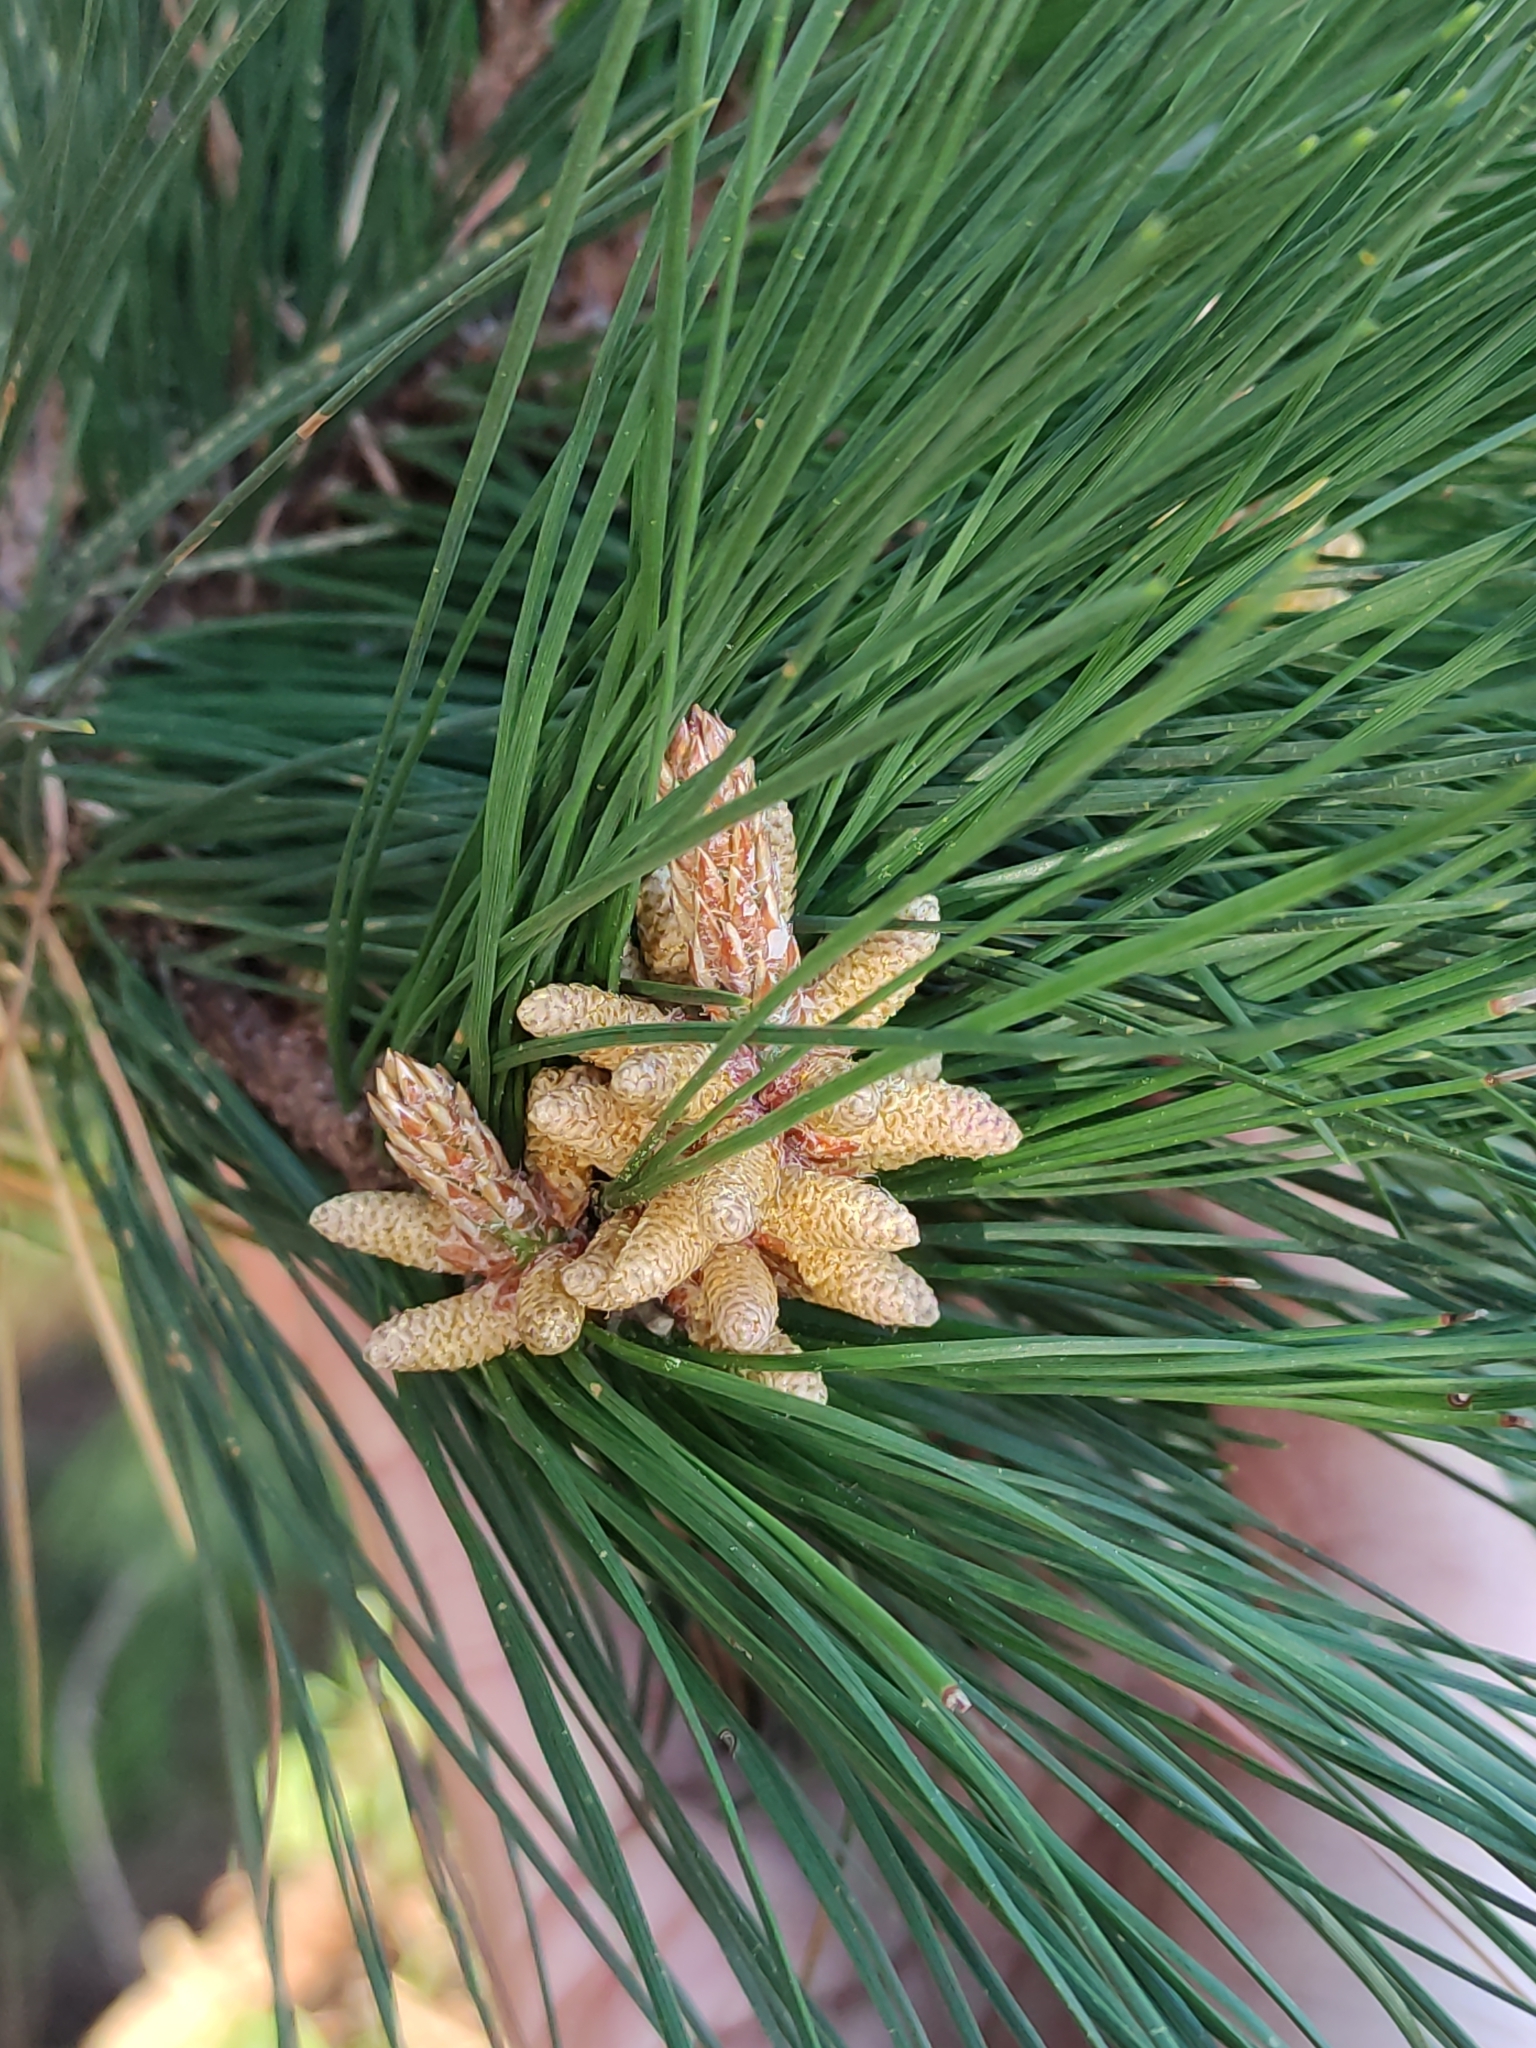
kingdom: Plantae
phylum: Tracheophyta
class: Pinopsida
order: Pinales
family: Pinaceae
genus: Pinus
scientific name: Pinus radiata
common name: Monterey pine
